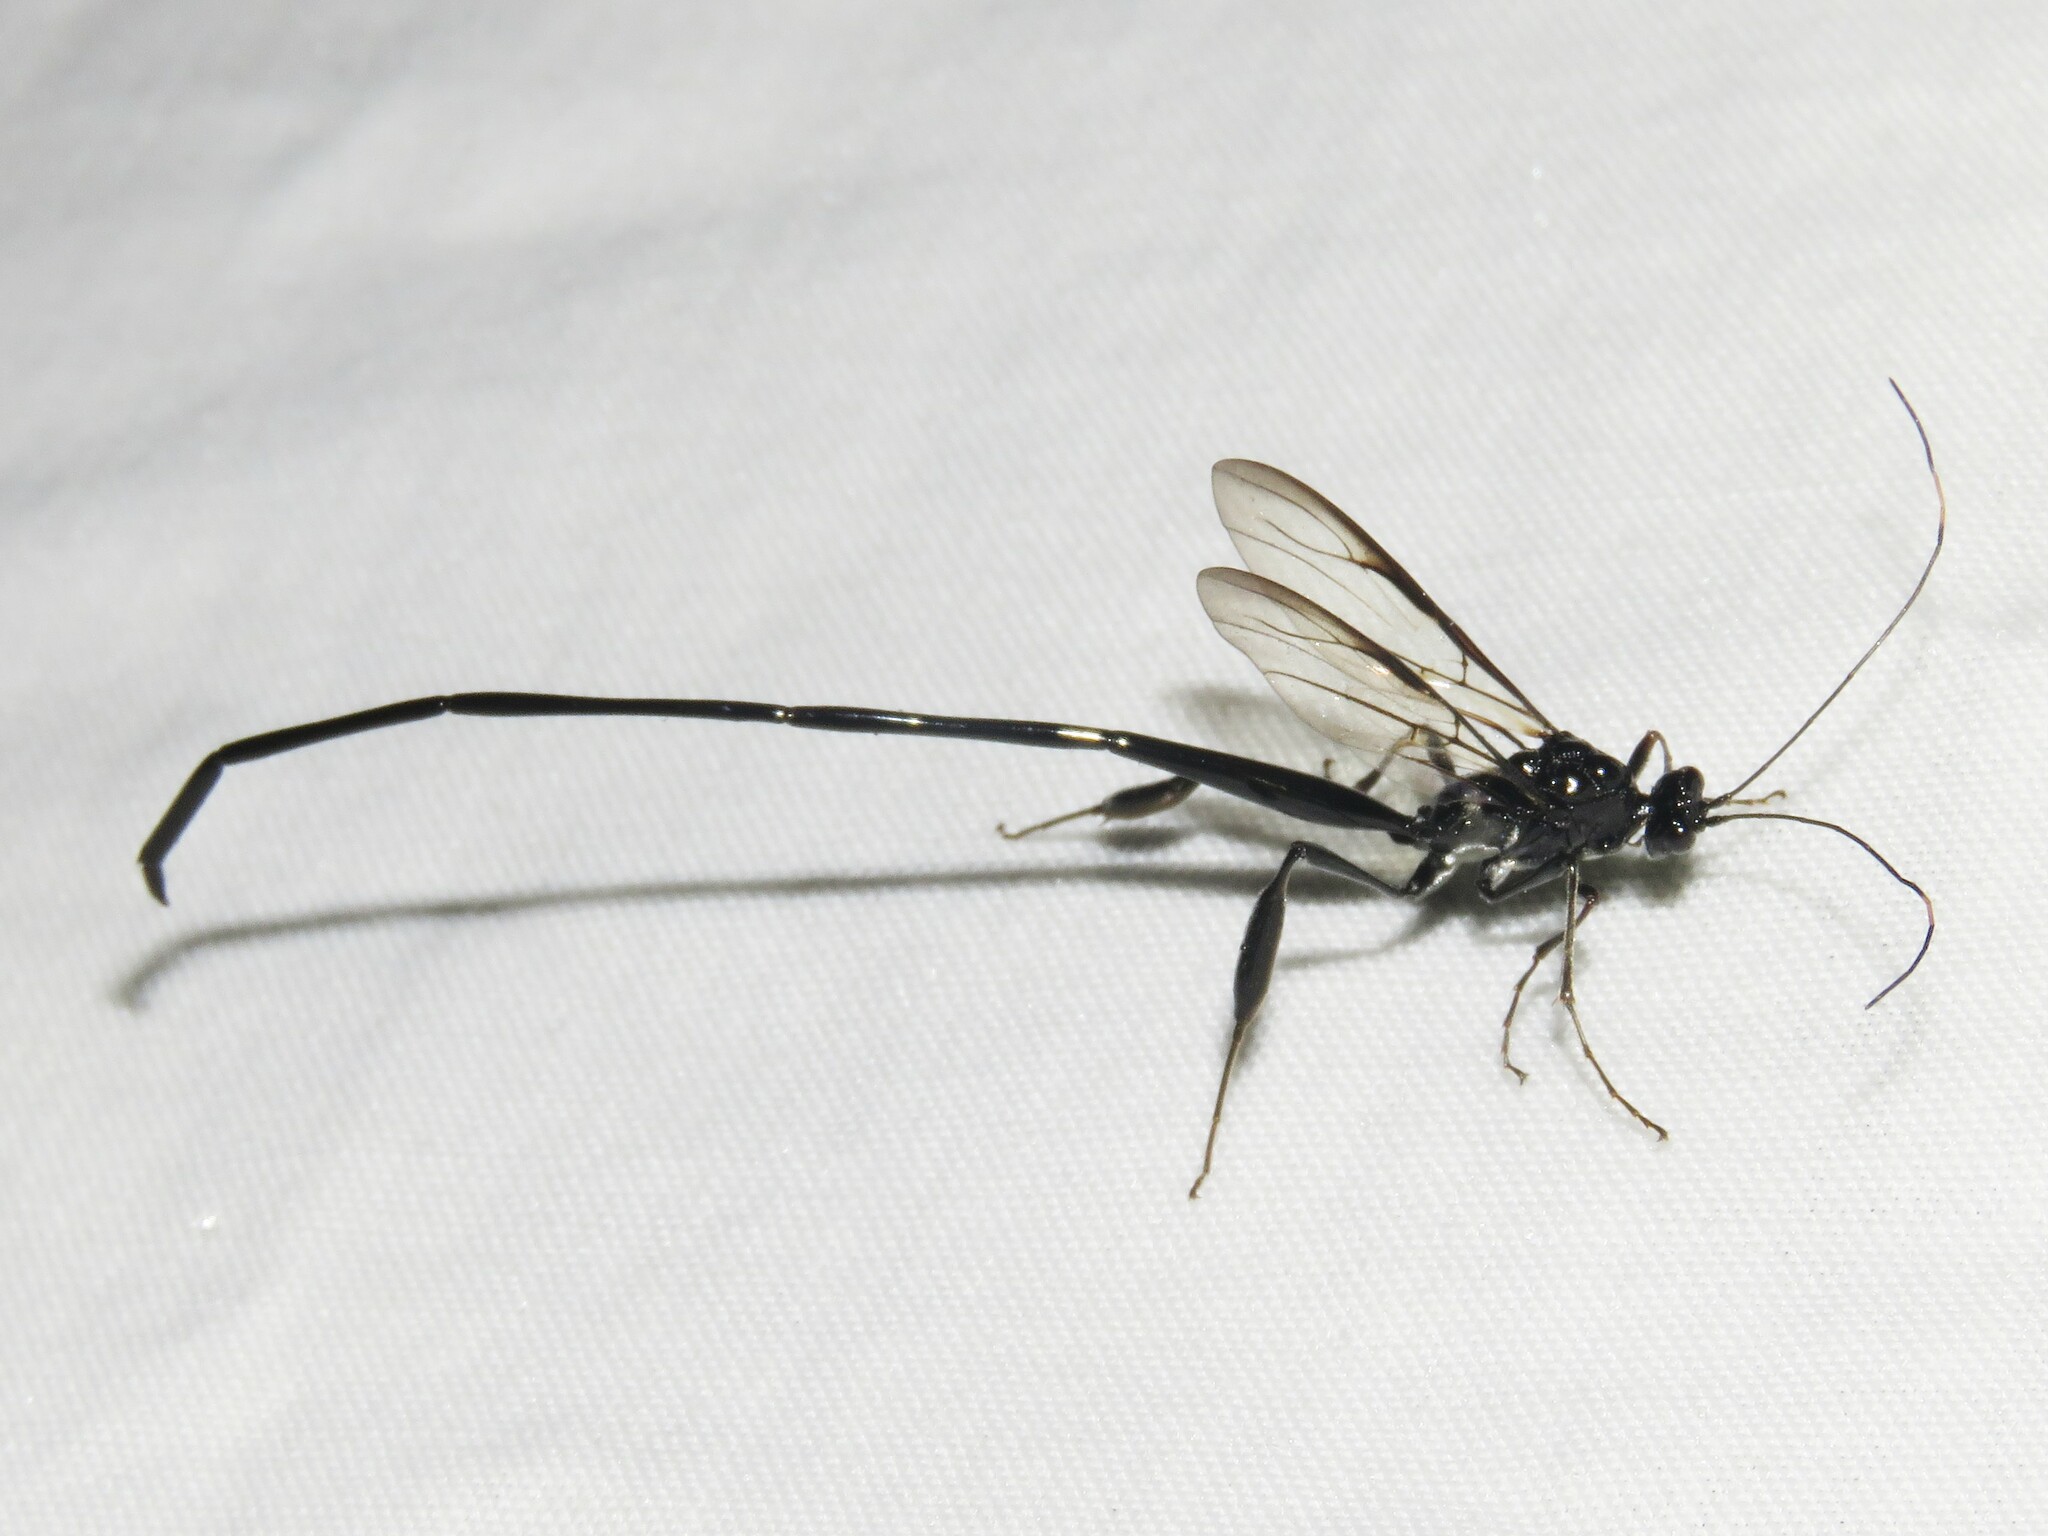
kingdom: Animalia
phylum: Arthropoda
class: Insecta
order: Hymenoptera
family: Pelecinidae
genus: Pelecinus
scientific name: Pelecinus polyturator
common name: American pelecinid wasp
